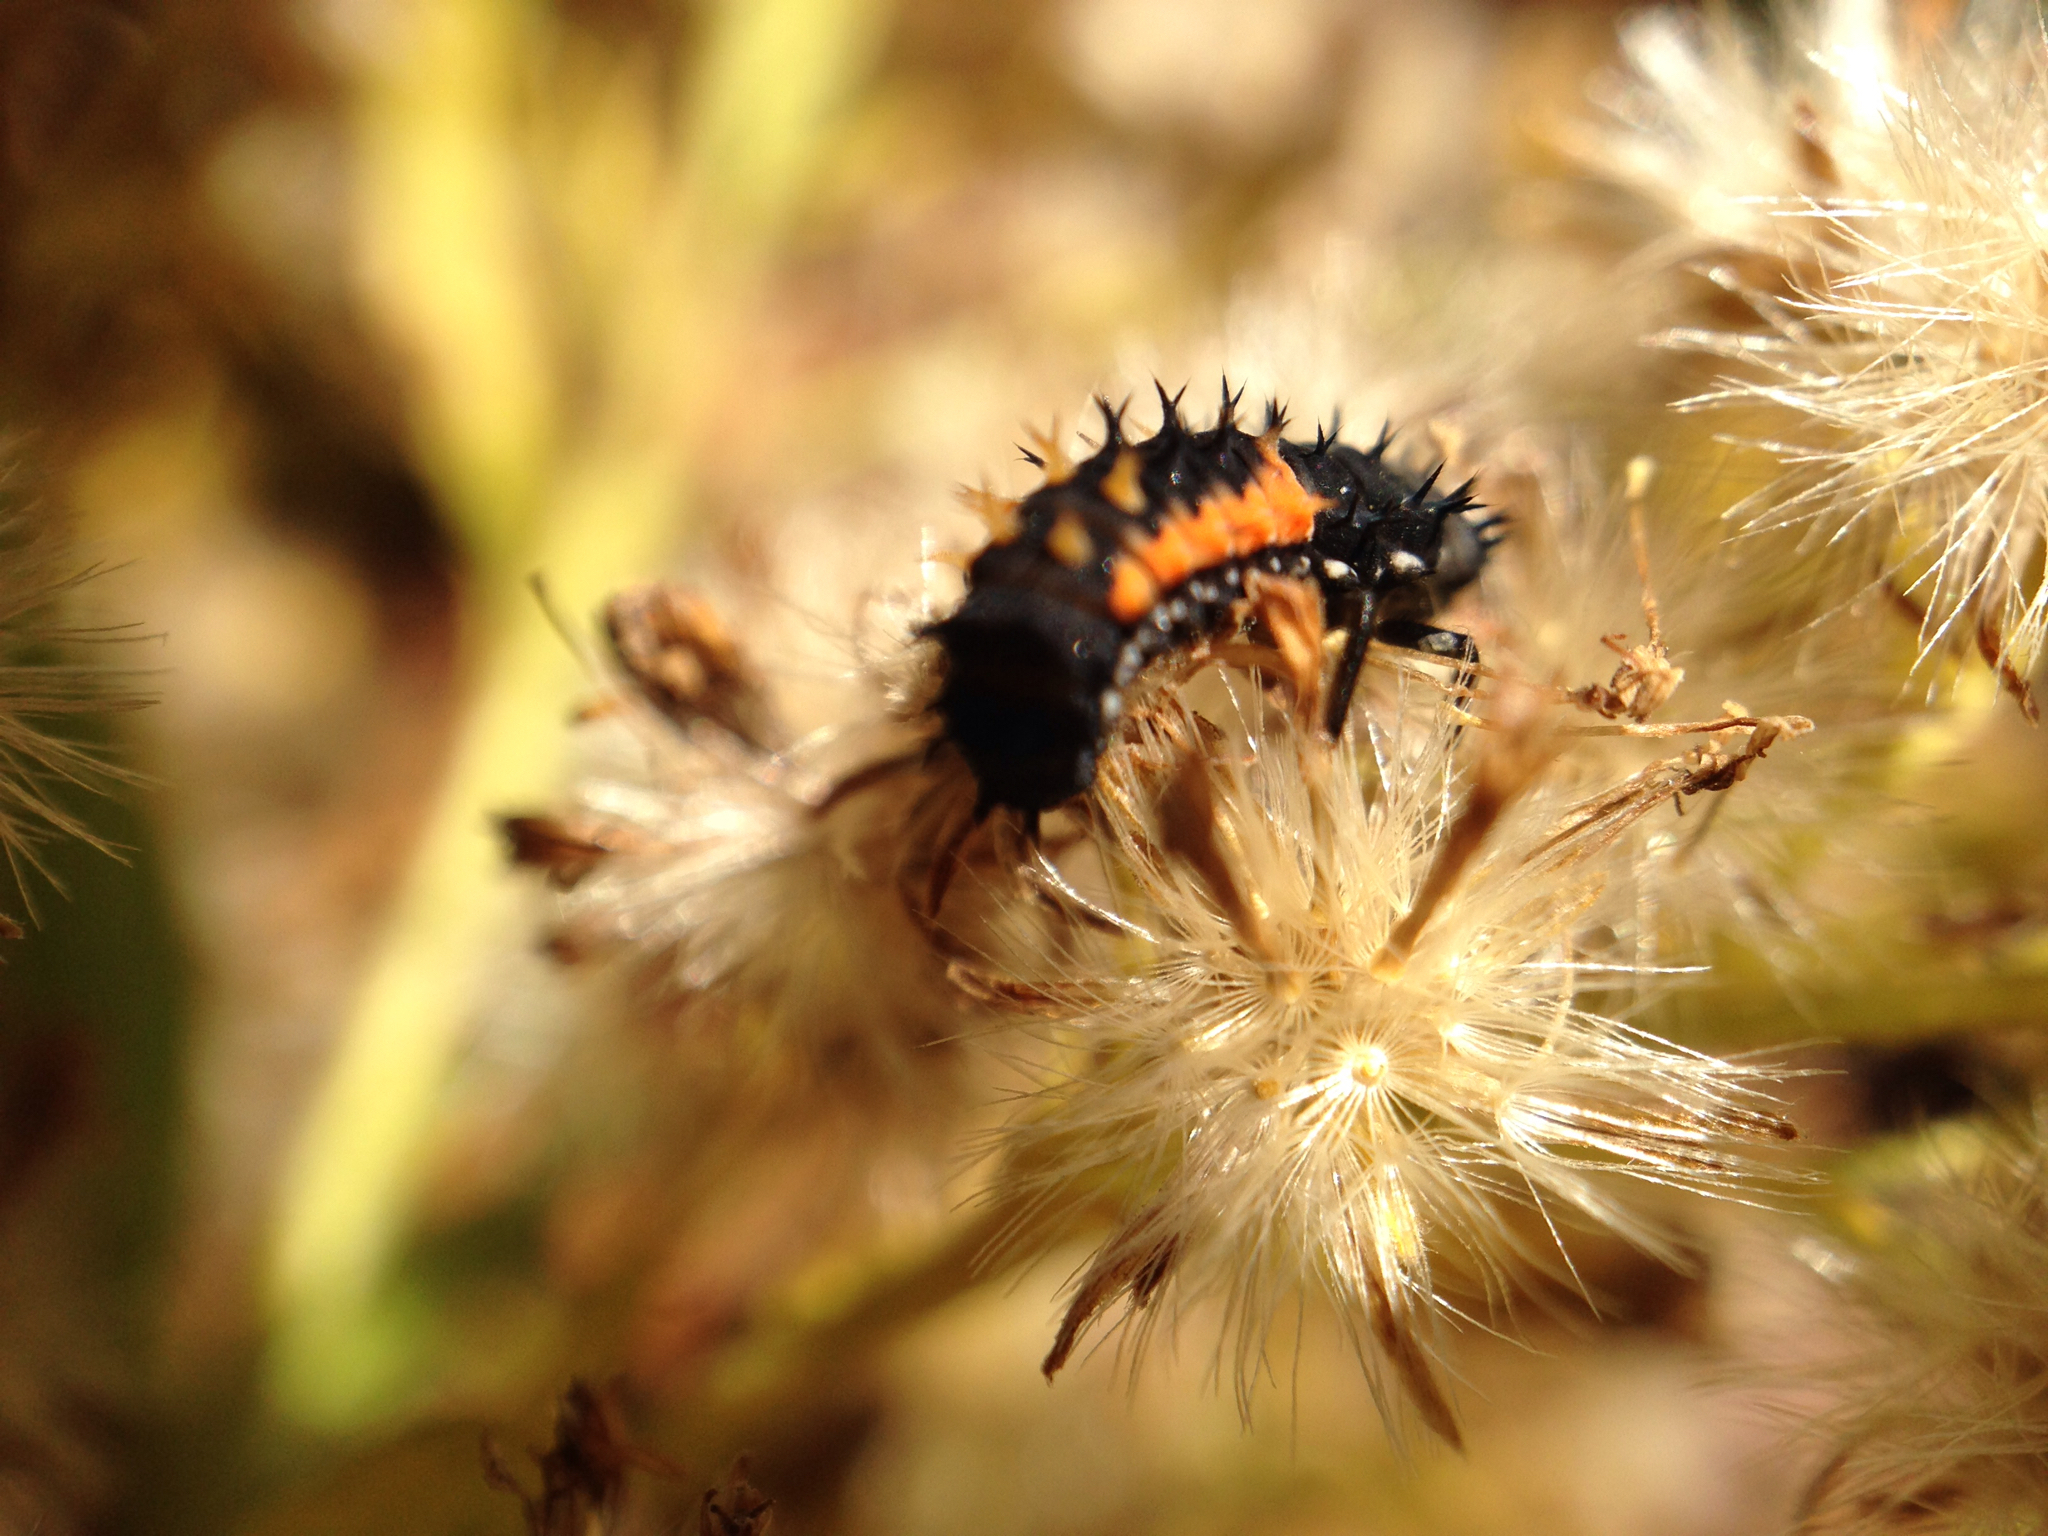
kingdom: Animalia
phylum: Arthropoda
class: Insecta
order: Coleoptera
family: Coccinellidae
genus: Harmonia
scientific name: Harmonia axyridis
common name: Harlequin ladybird
